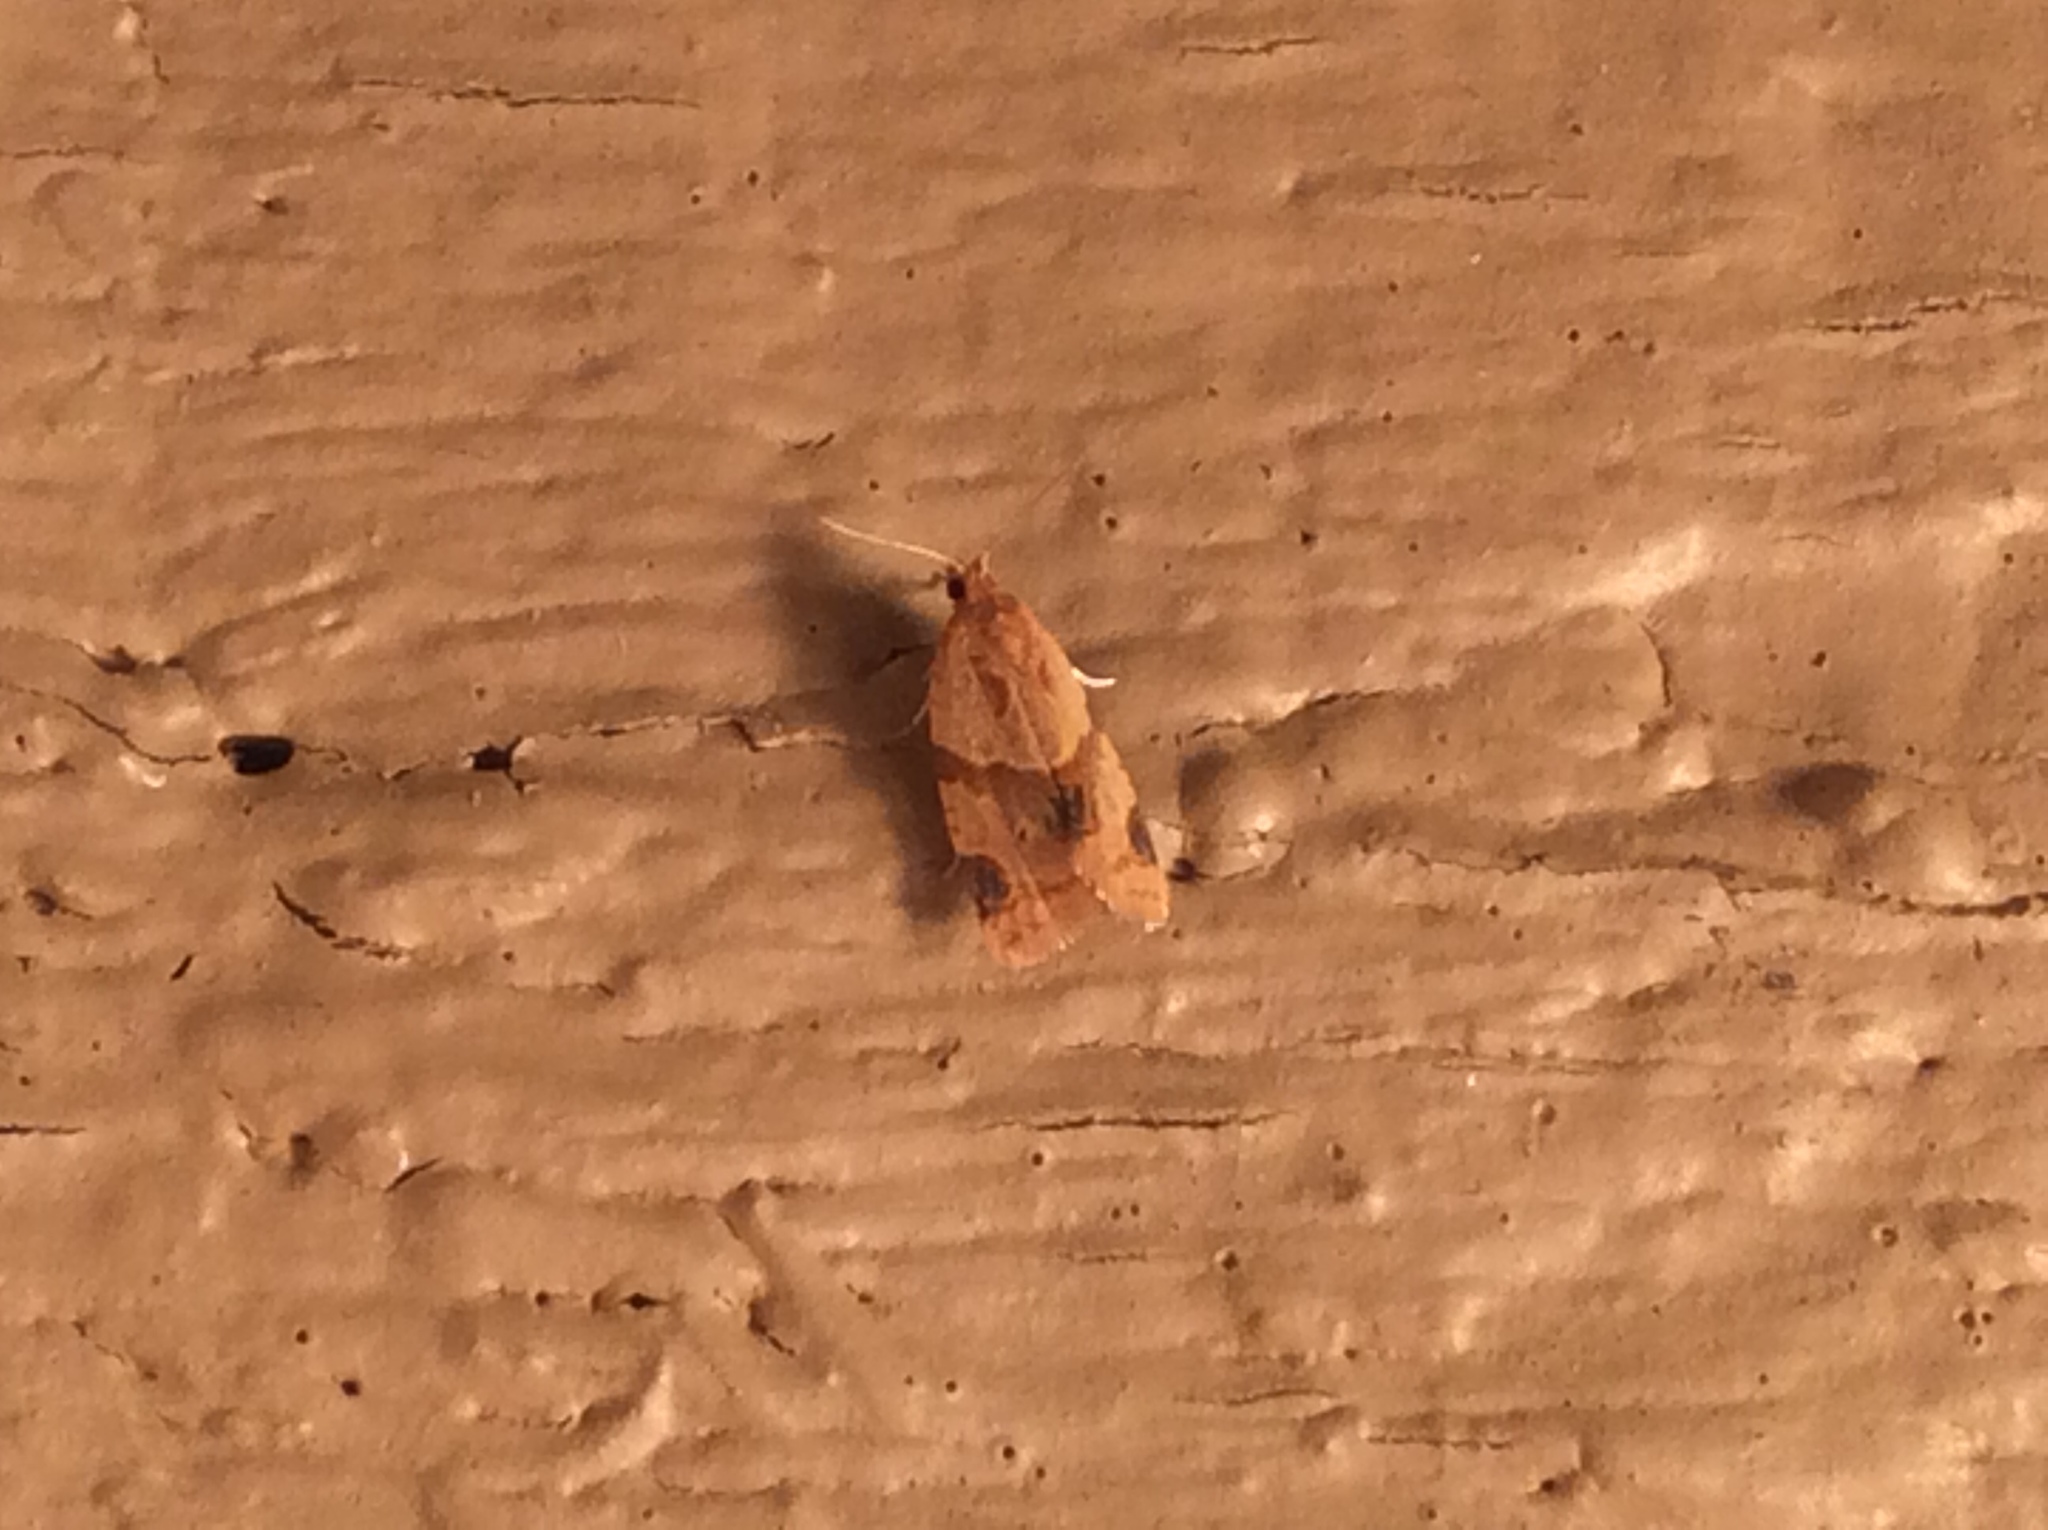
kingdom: Animalia
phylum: Arthropoda
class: Insecta
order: Lepidoptera
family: Tortricidae
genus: Clepsis
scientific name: Clepsis peritana
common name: Garden tortrix
